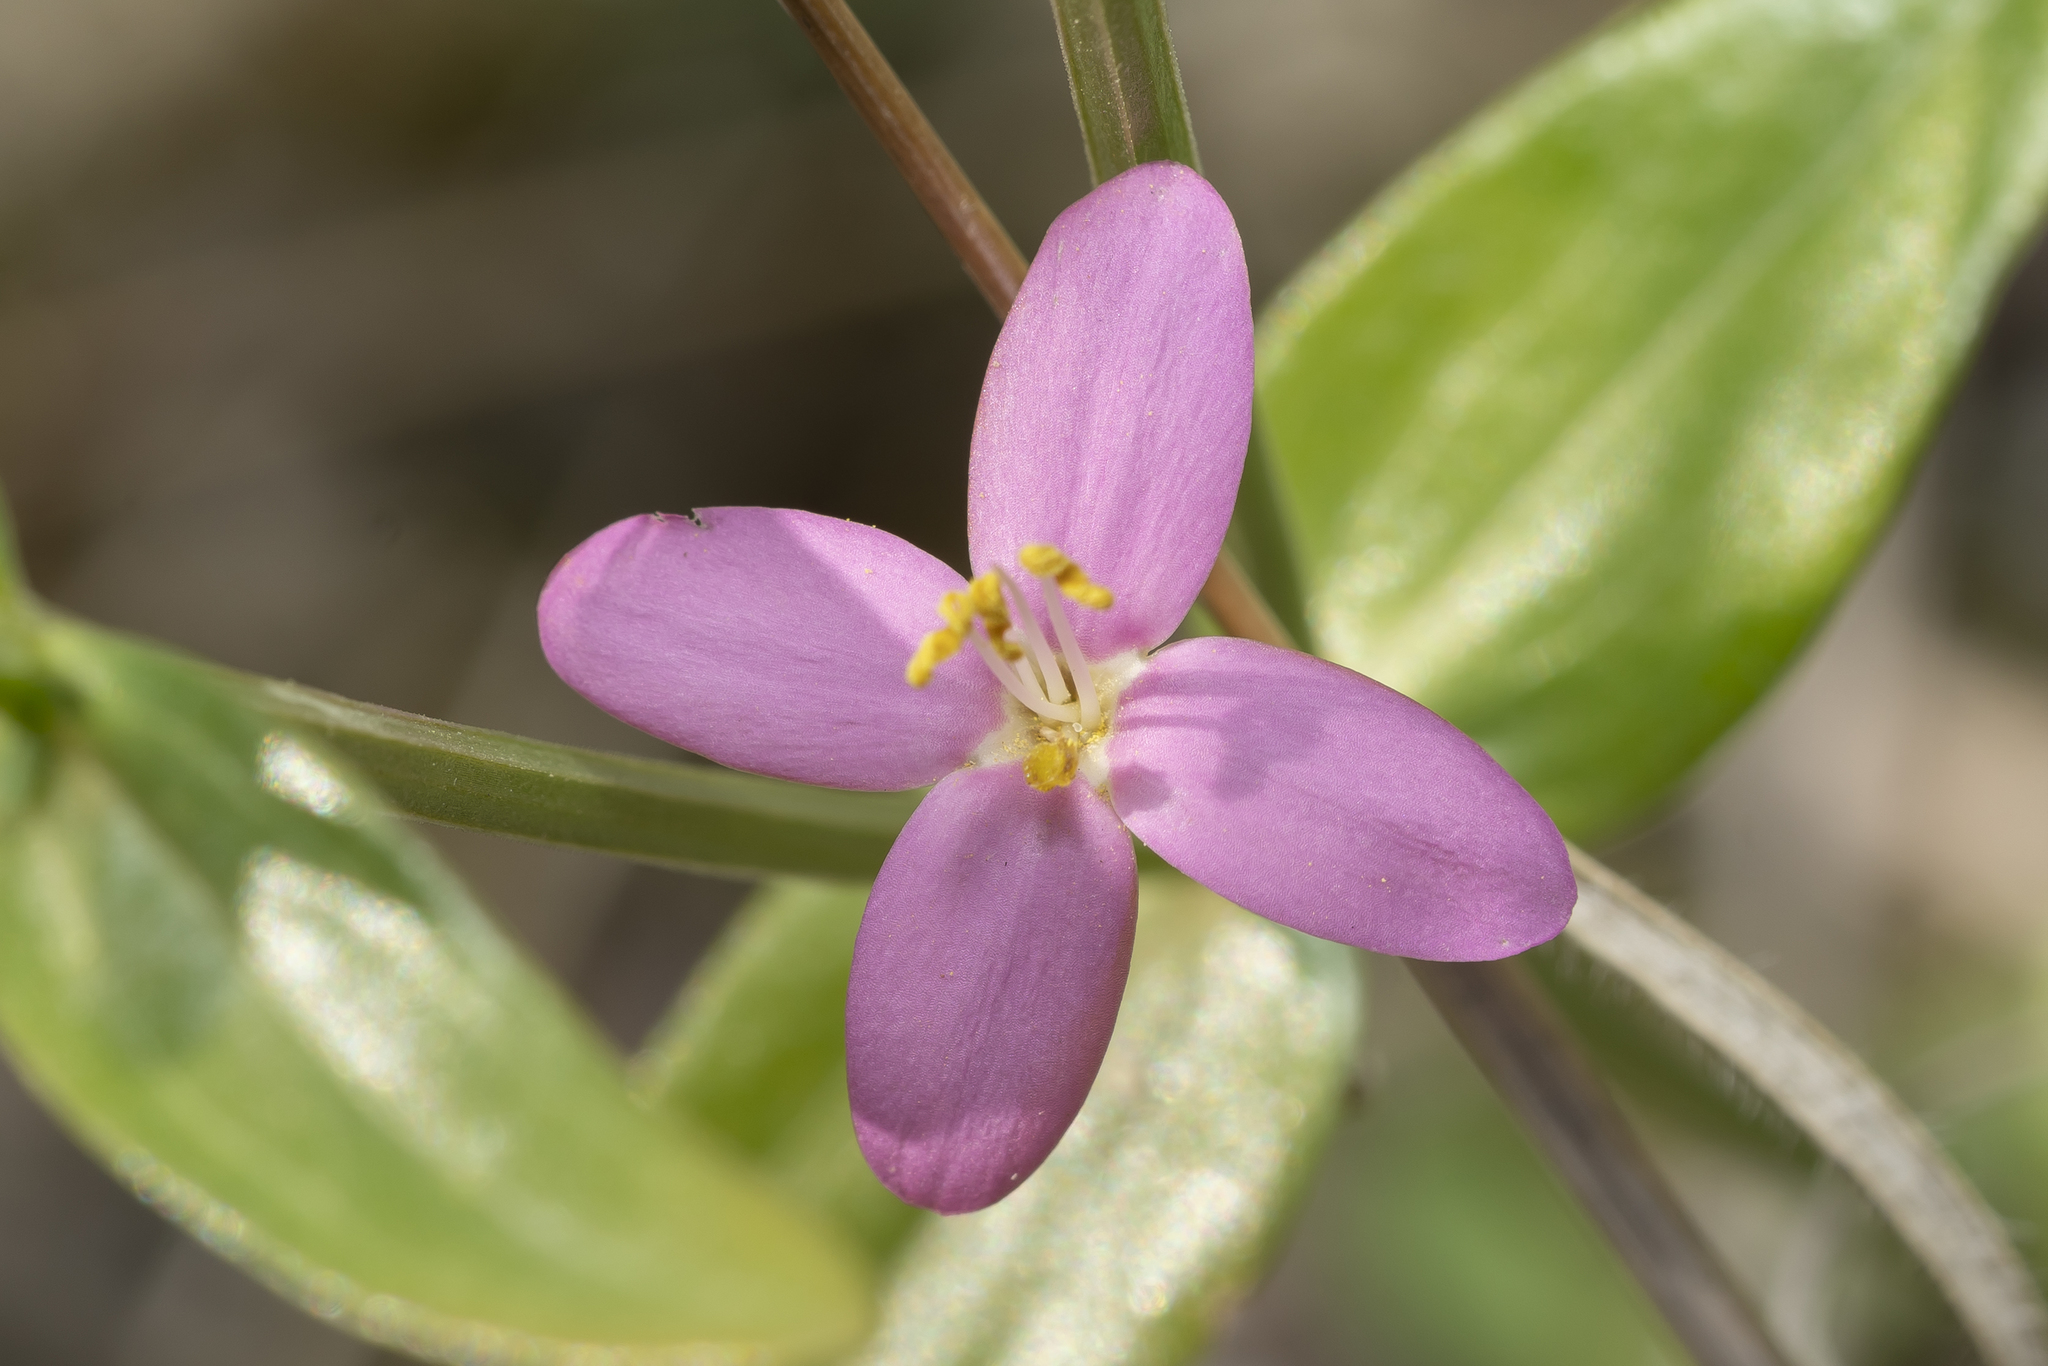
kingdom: Plantae
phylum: Tracheophyta
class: Magnoliopsida
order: Gentianales
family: Gentianaceae
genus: Centaurium
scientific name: Centaurium erythraea
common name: Common centaury
